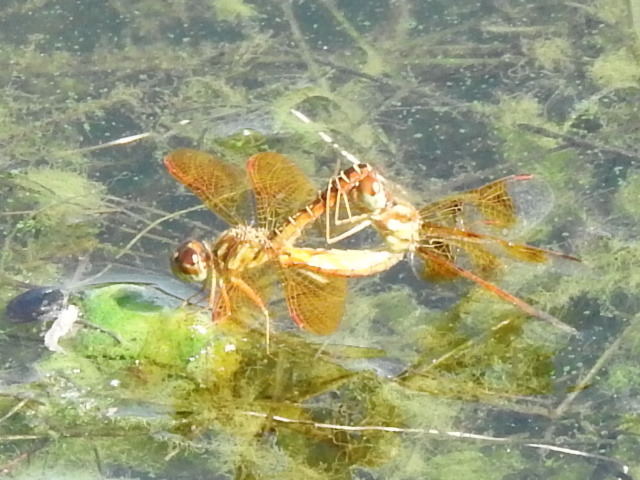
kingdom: Animalia
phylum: Arthropoda
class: Insecta
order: Odonata
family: Libellulidae
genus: Perithemis
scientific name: Perithemis tenera
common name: Eastern amberwing
